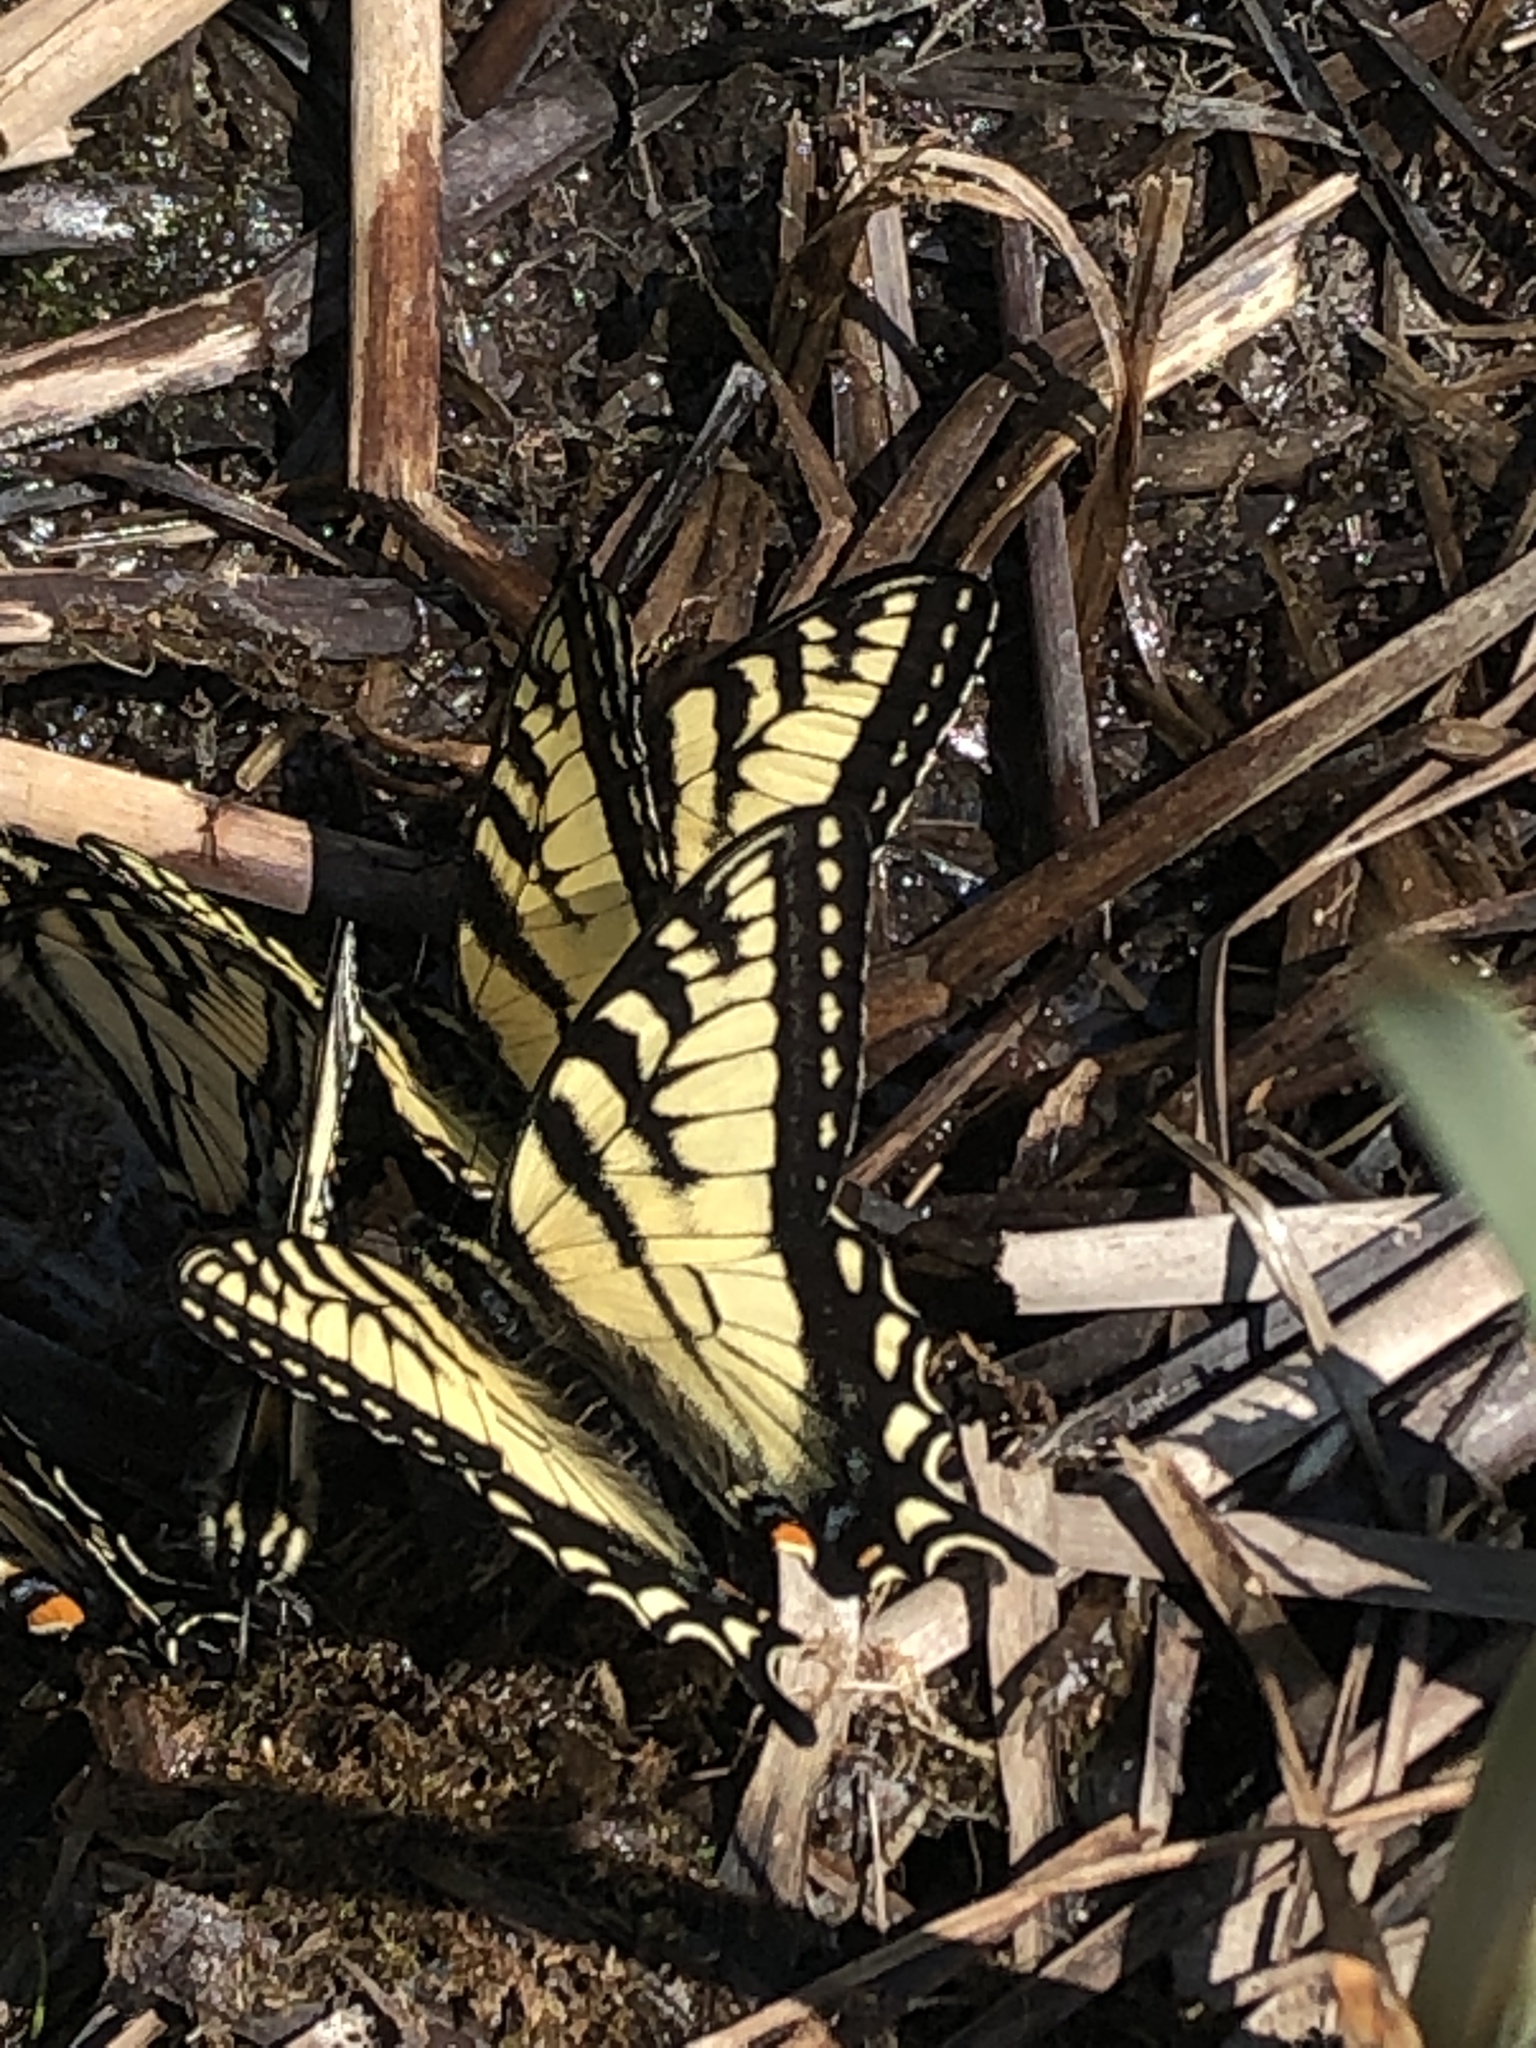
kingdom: Animalia
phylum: Arthropoda
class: Insecta
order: Lepidoptera
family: Papilionidae
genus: Papilio
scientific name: Papilio canadensis
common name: Canadian tiger swallowtail
